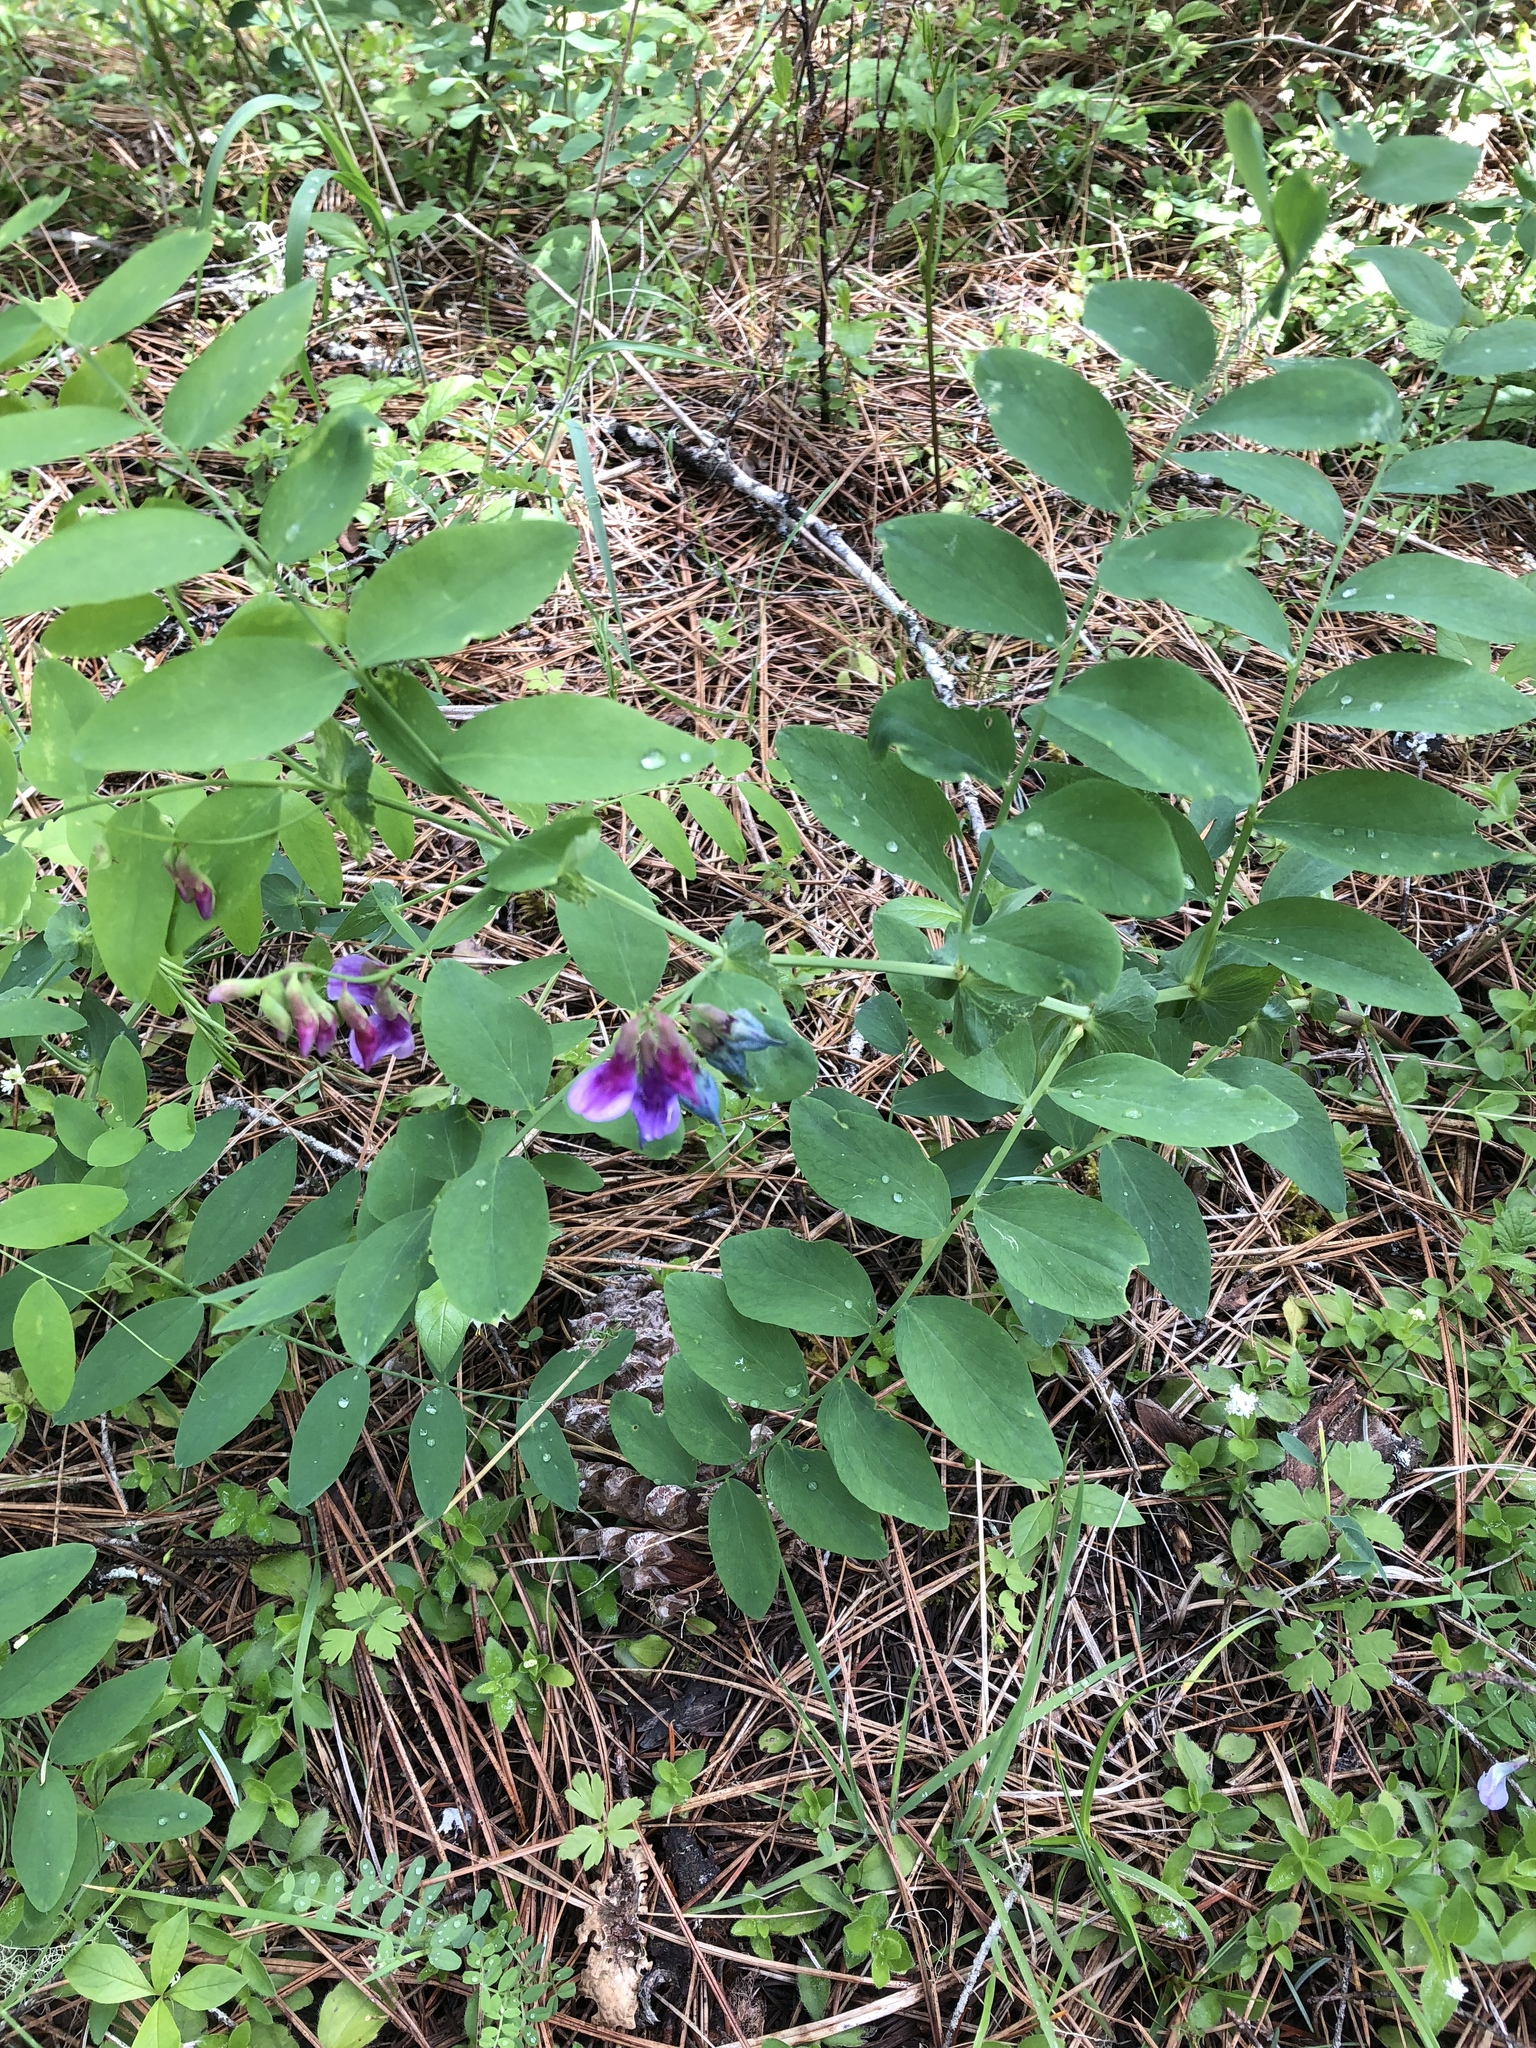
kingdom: Plantae
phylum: Tracheophyta
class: Magnoliopsida
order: Fabales
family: Fabaceae
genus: Lathyrus
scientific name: Lathyrus polyphyllus
